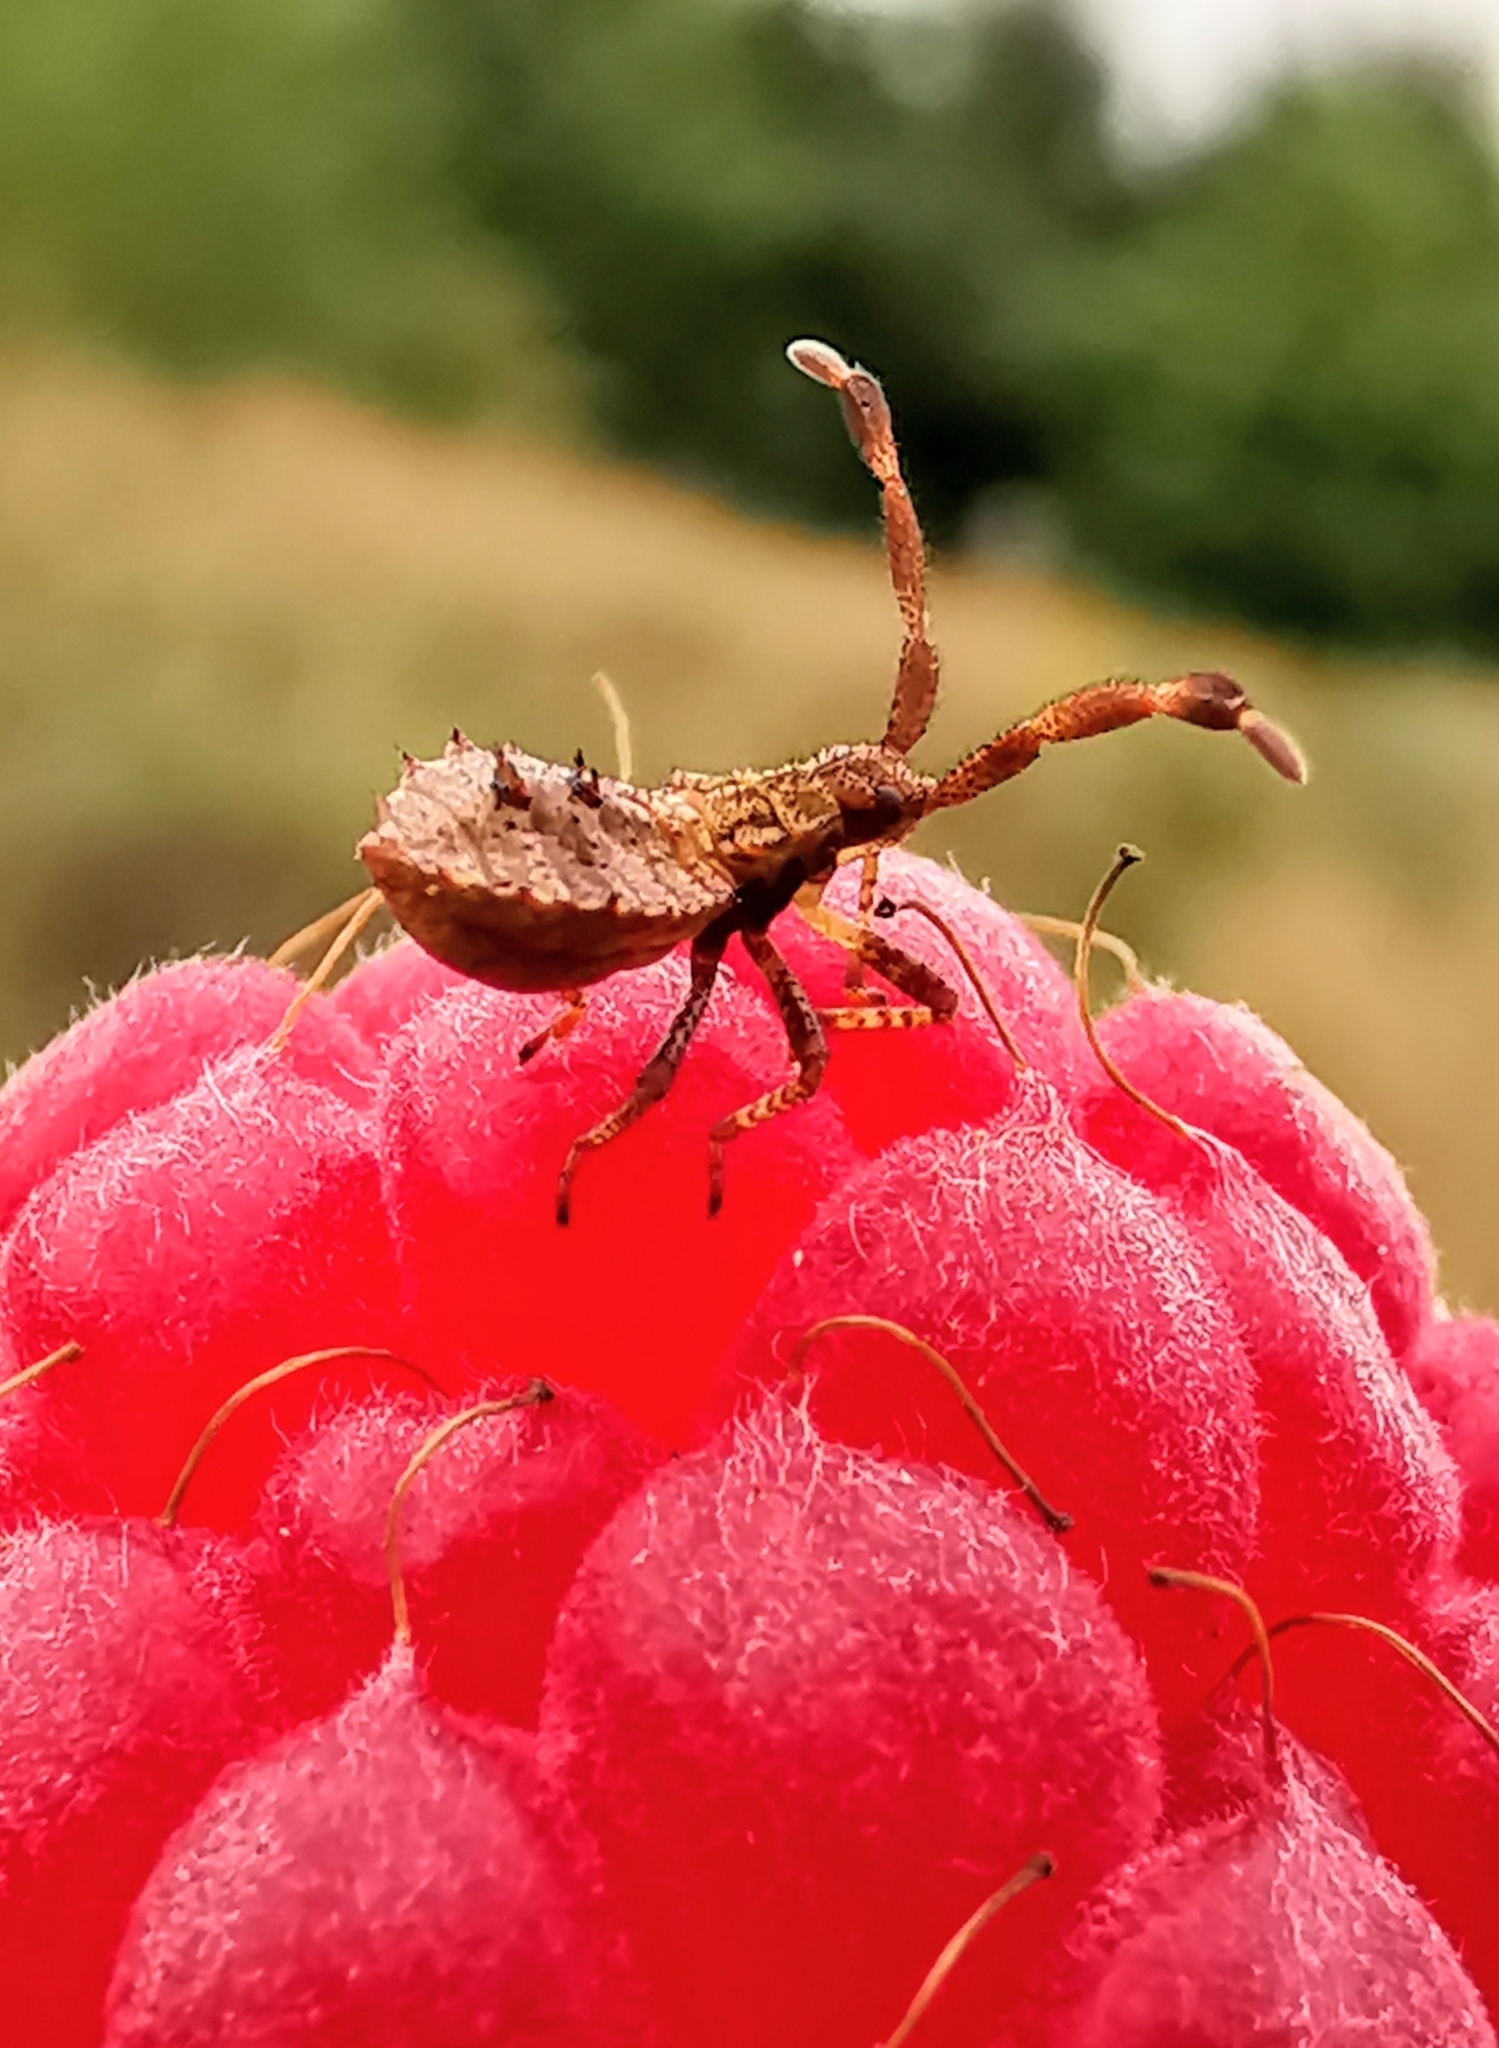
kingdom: Animalia
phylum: Arthropoda
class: Insecta
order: Hemiptera
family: Coreidae
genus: Coreus
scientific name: Coreus marginatus
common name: Dock bug
